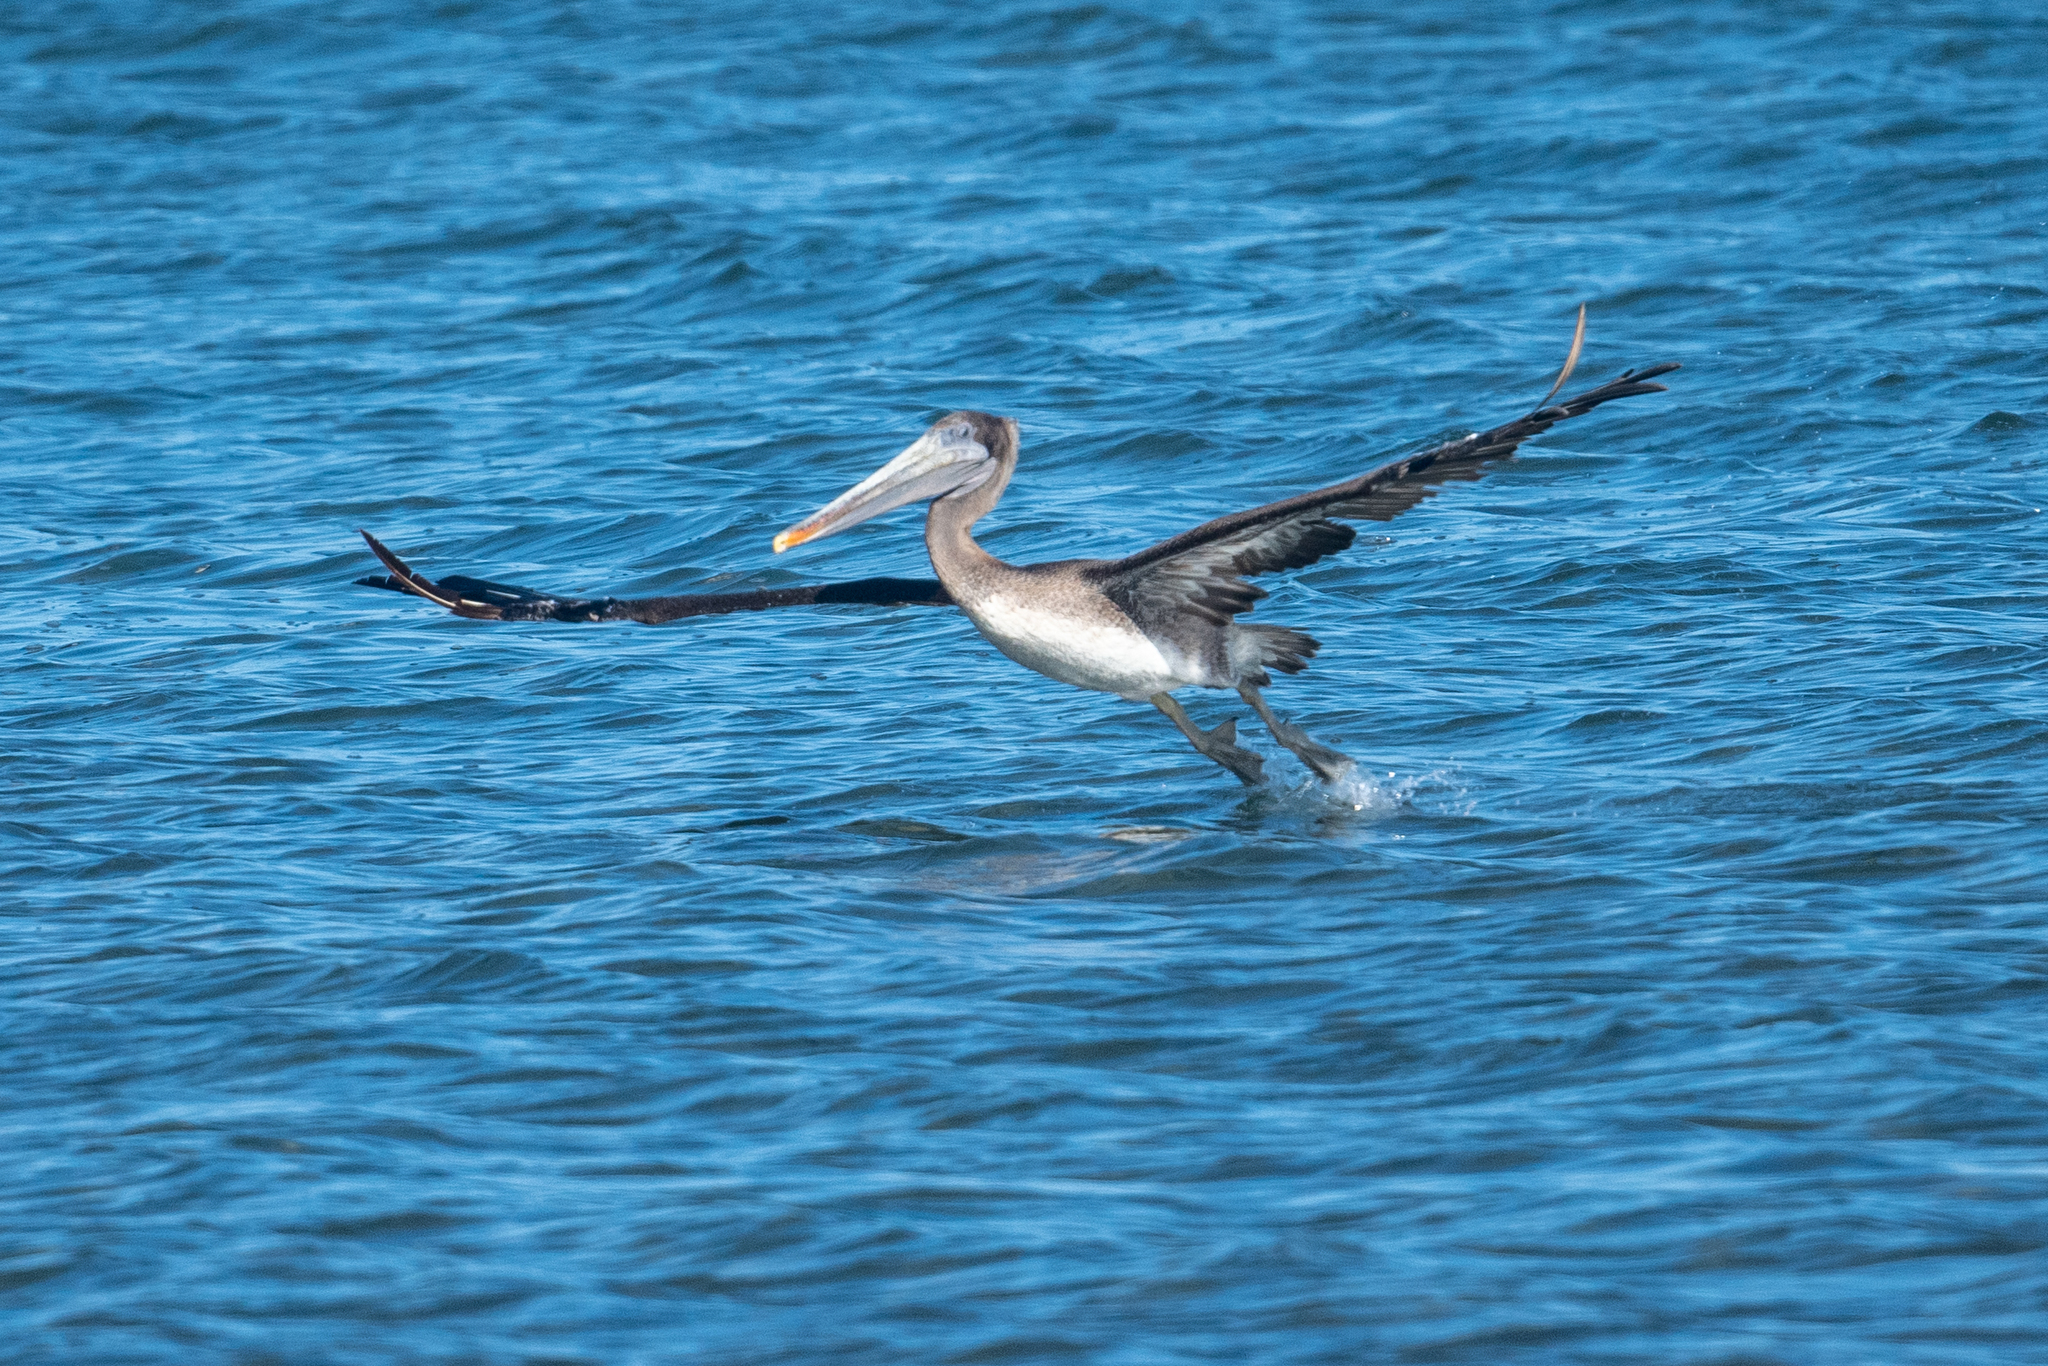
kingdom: Animalia
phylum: Chordata
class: Aves
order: Pelecaniformes
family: Pelecanidae
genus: Pelecanus
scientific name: Pelecanus occidentalis
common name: Brown pelican
